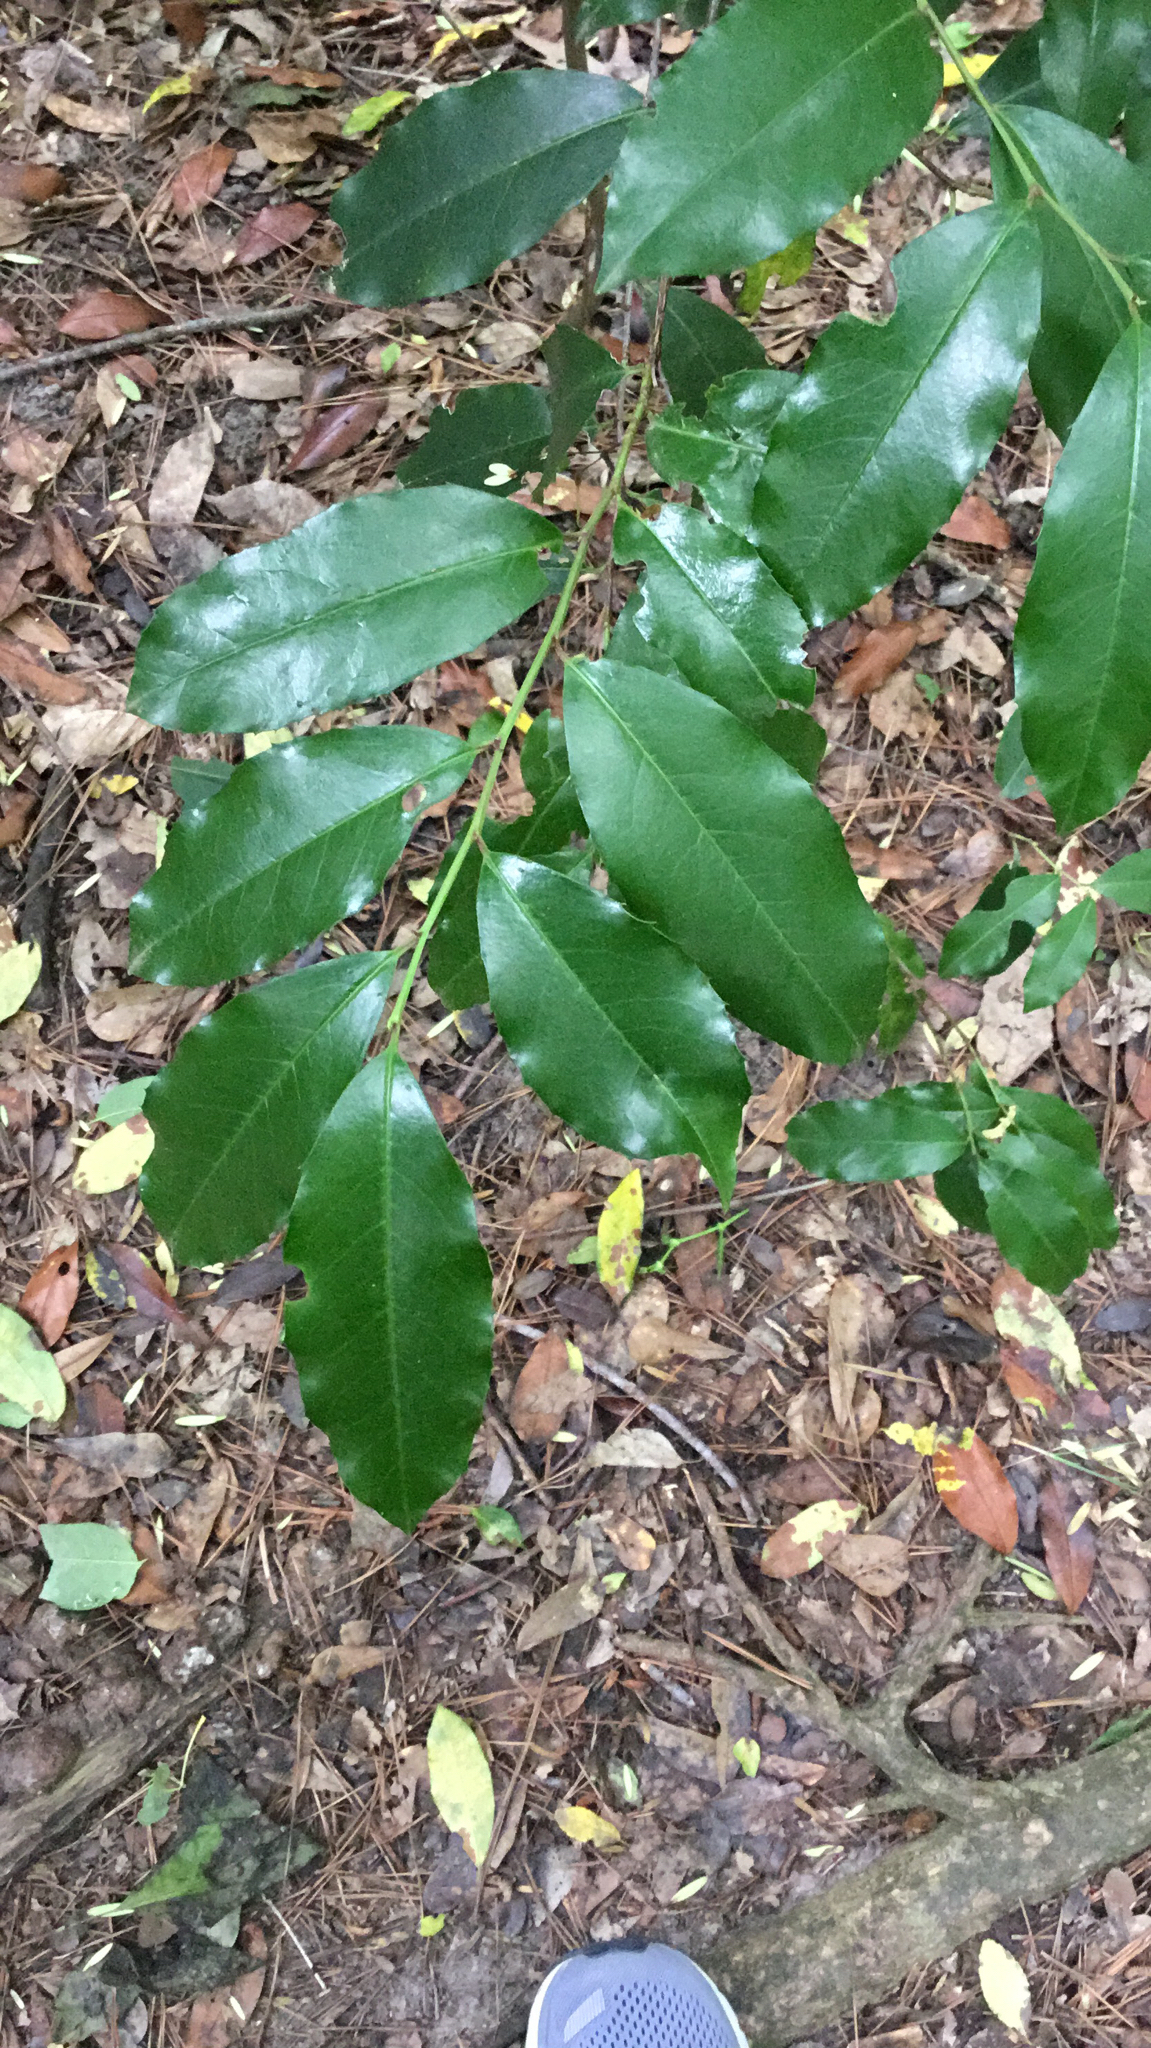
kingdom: Plantae
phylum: Tracheophyta
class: Magnoliopsida
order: Rosales
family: Rosaceae
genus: Prunus
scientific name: Prunus caroliniana
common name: Carolina laurel cherry
